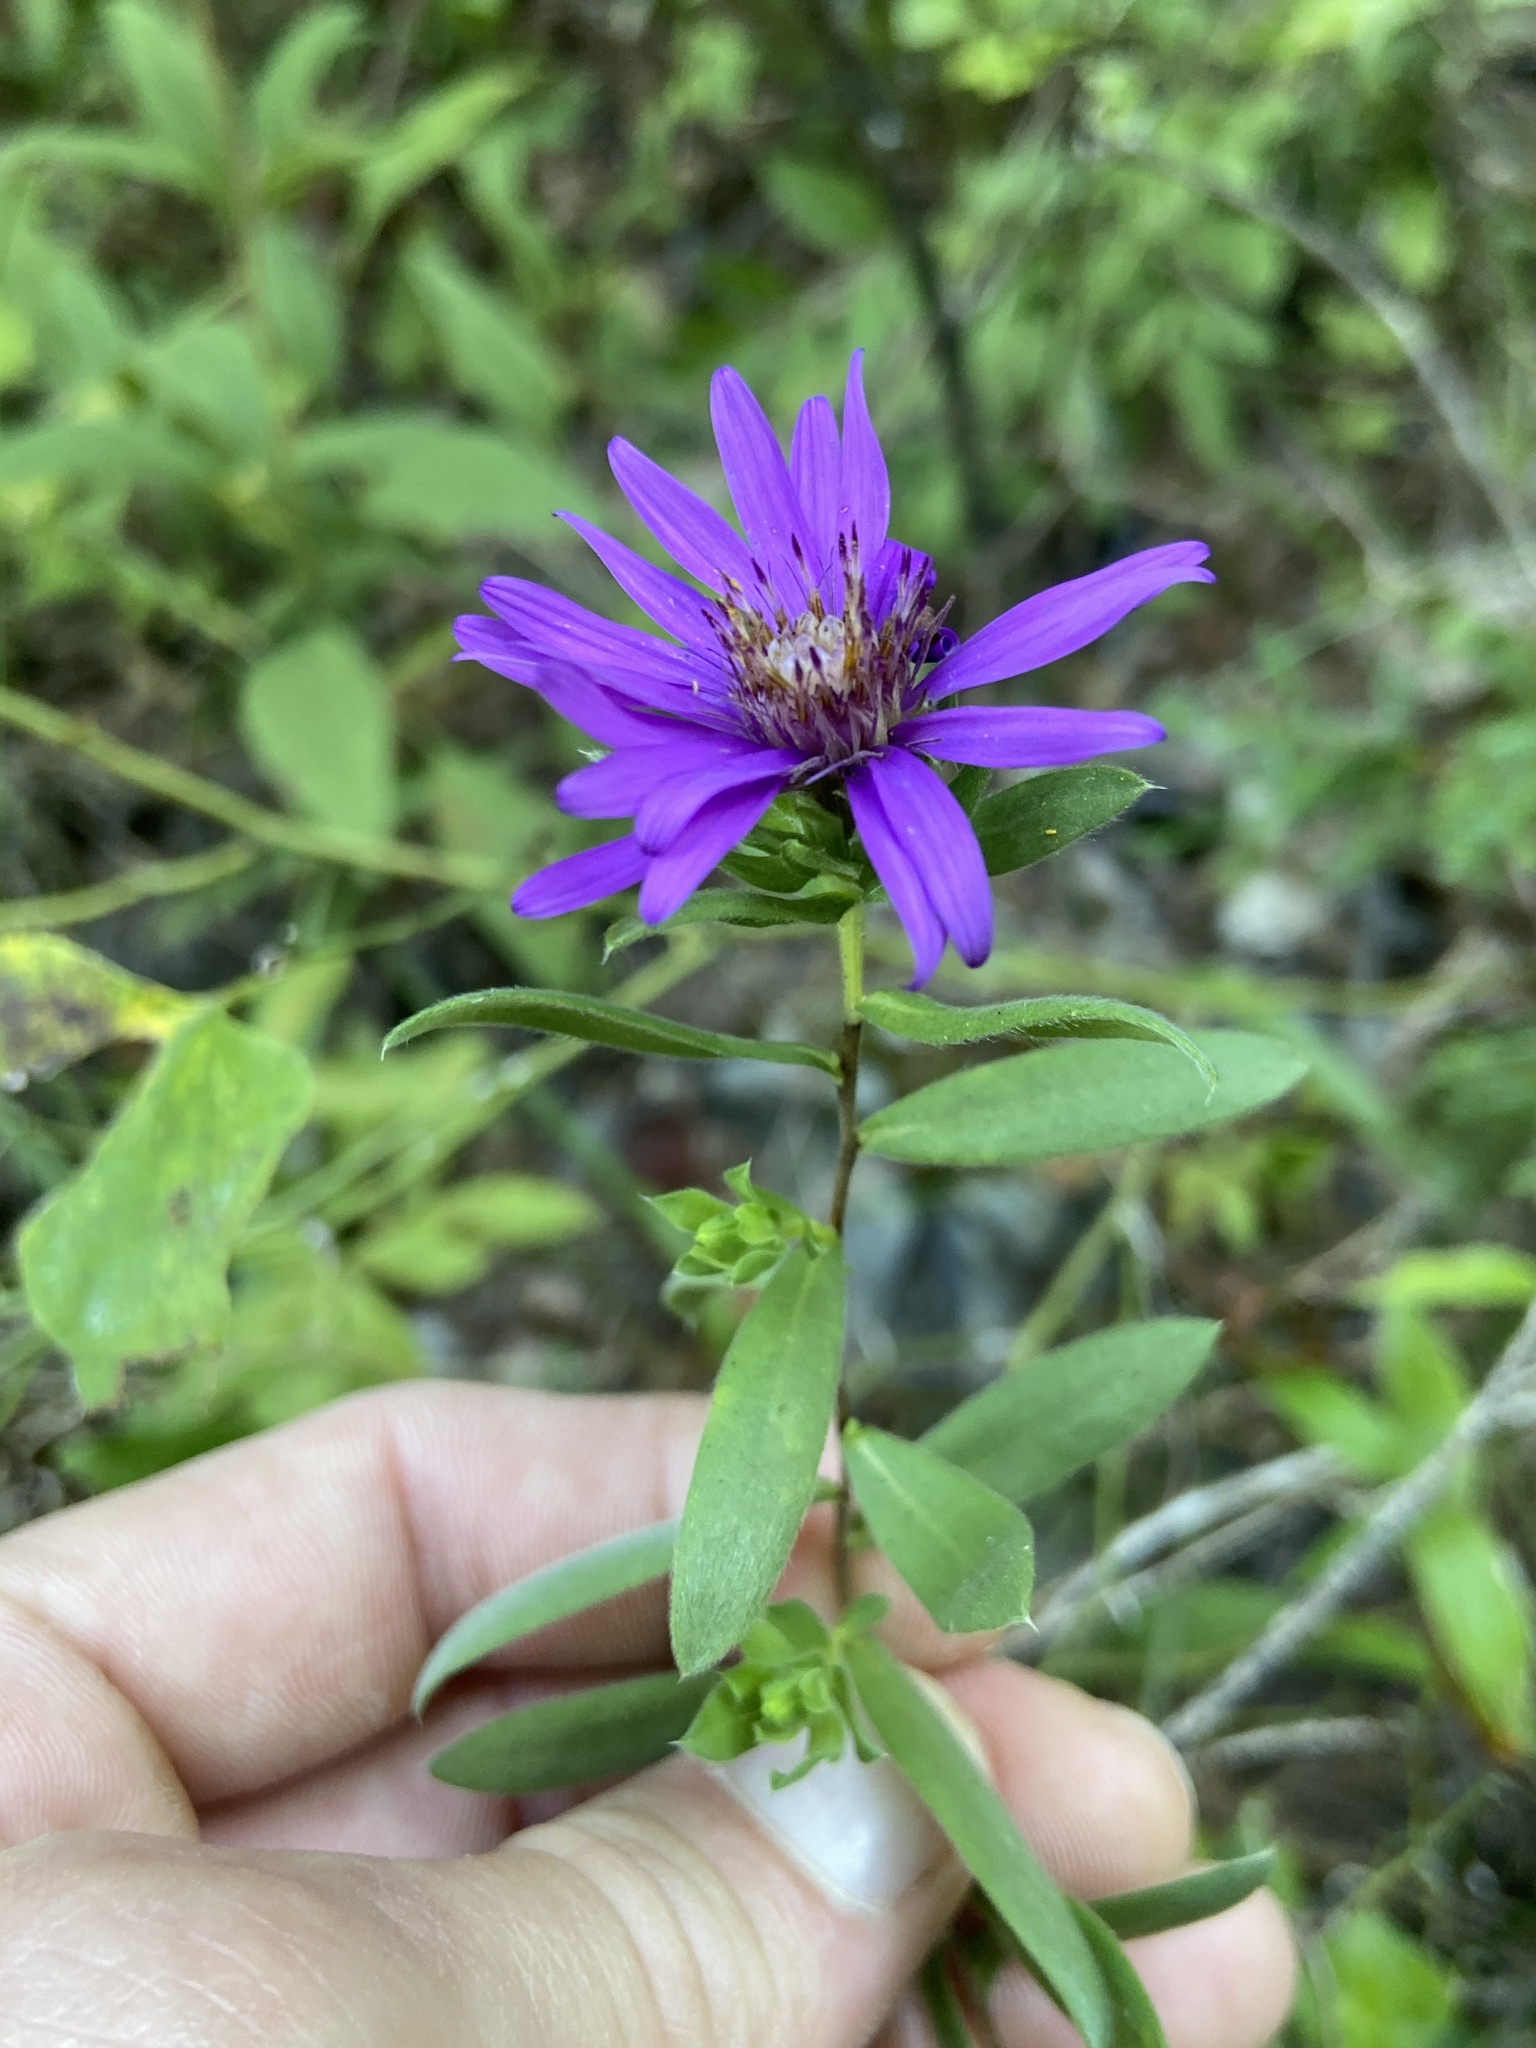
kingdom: Plantae
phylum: Tracheophyta
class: Magnoliopsida
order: Asterales
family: Asteraceae
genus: Symphyotrichum
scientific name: Symphyotrichum pratense
